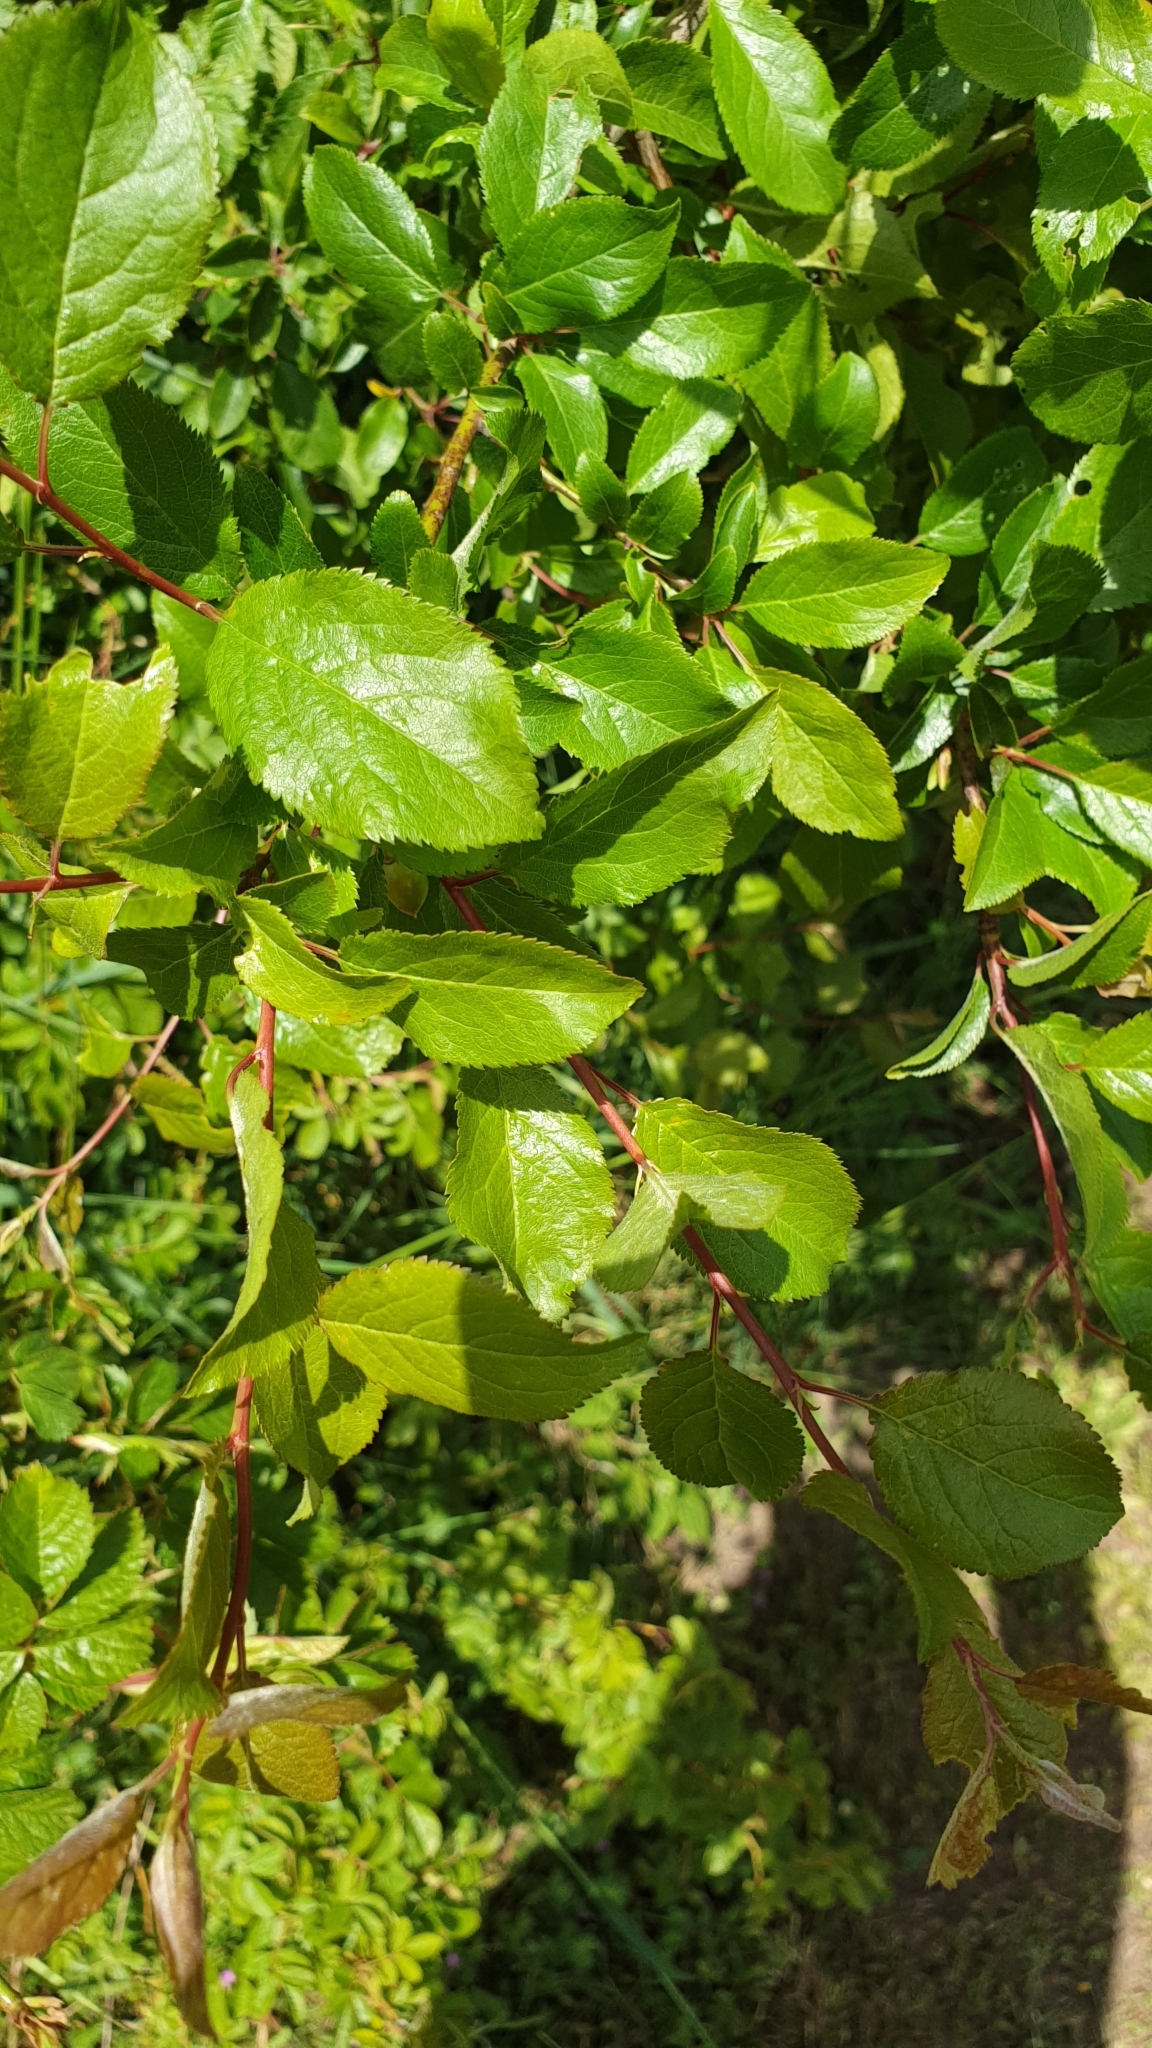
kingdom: Plantae
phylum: Tracheophyta
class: Magnoliopsida
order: Rosales
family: Rosaceae
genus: Prunus
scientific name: Prunus cerasifera
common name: Cherry plum
